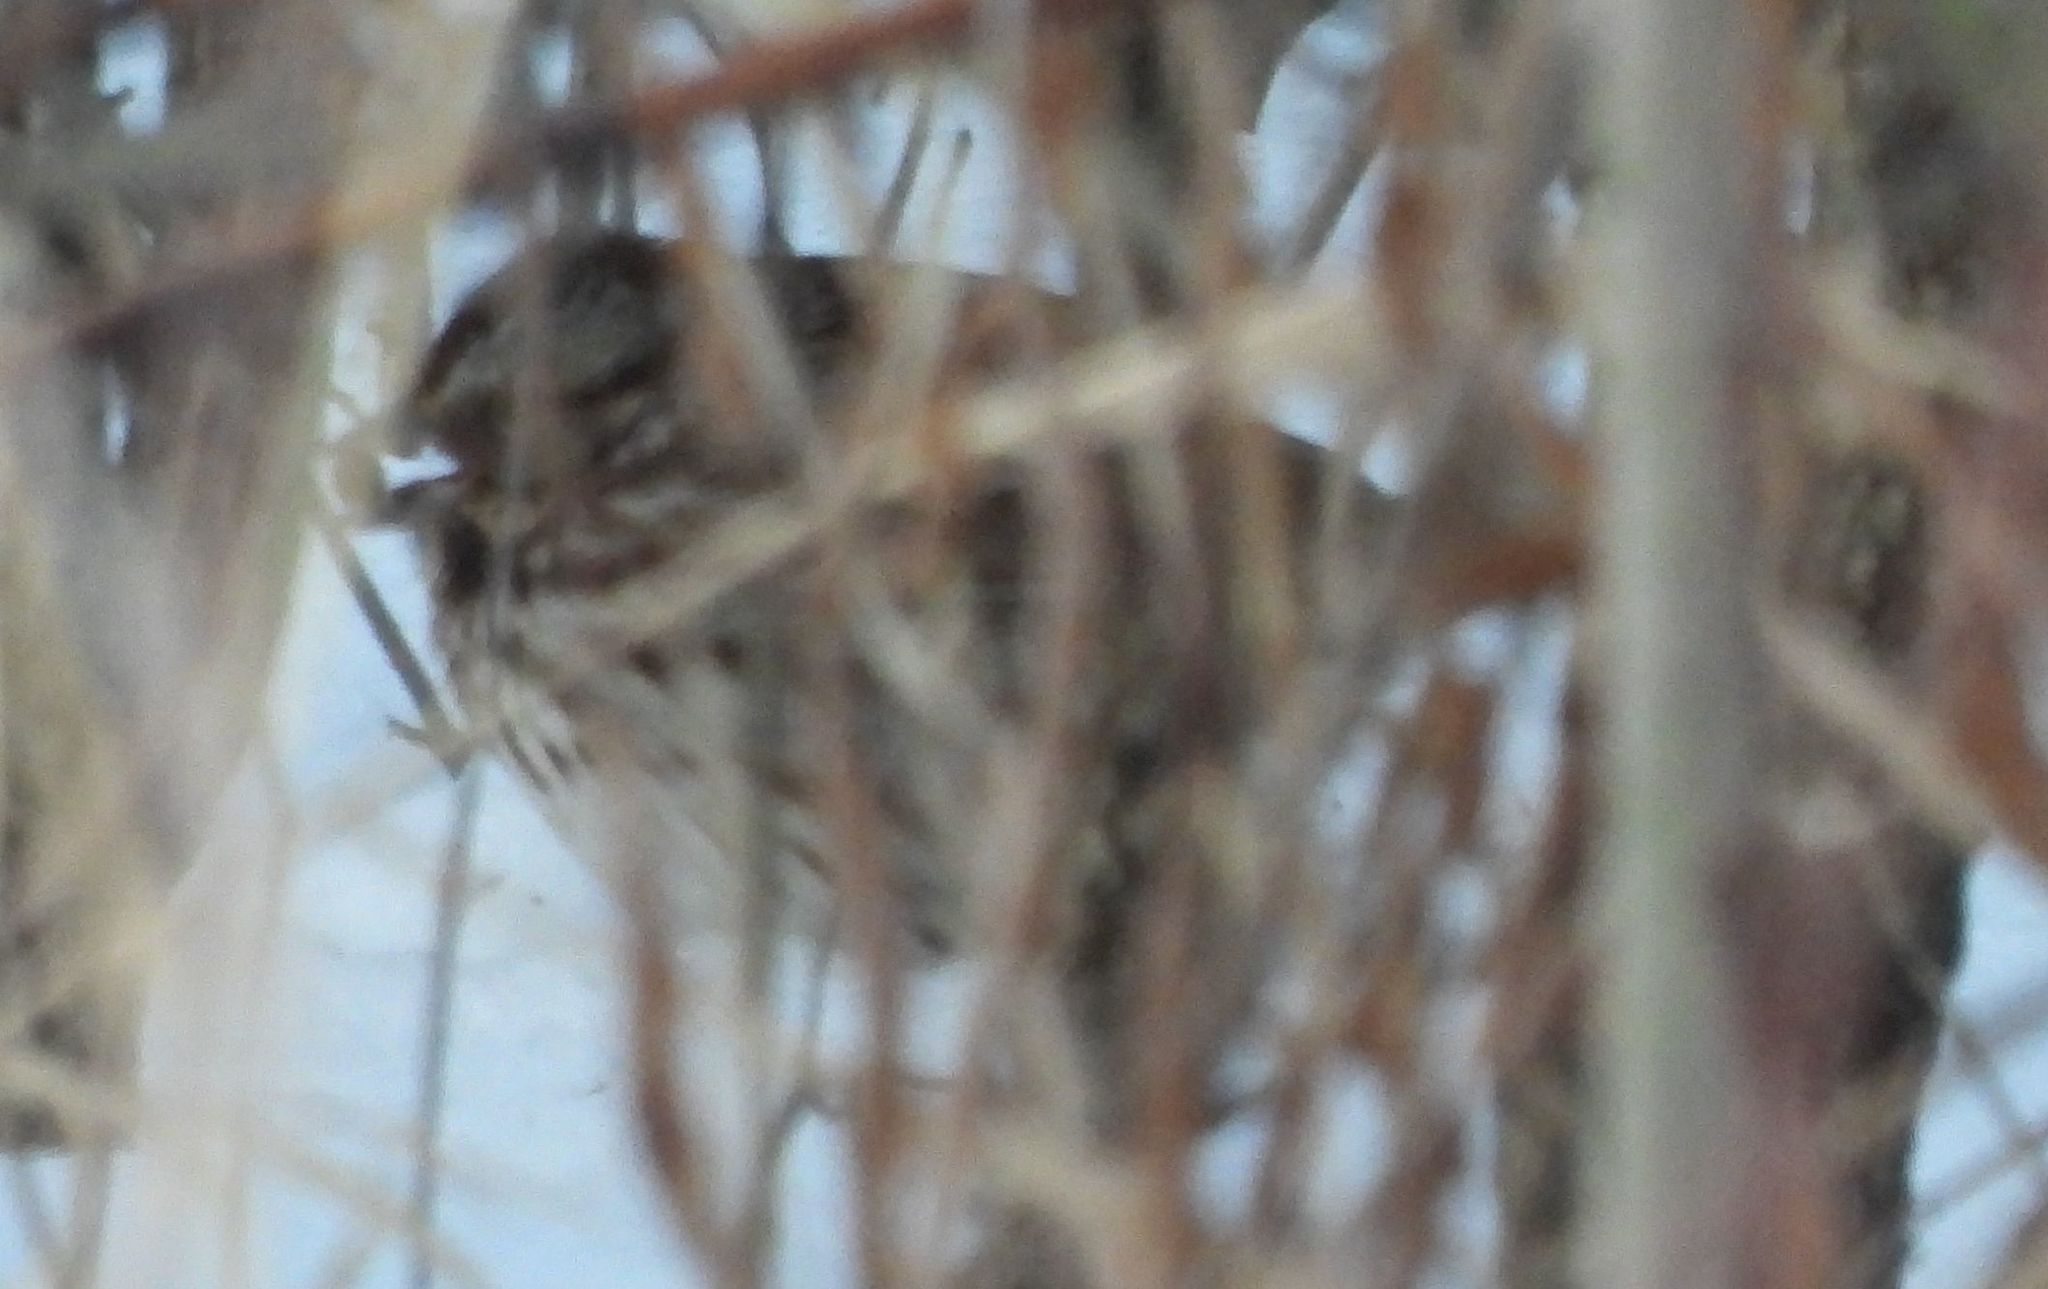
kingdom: Animalia
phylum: Chordata
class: Aves
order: Passeriformes
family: Passerellidae
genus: Melospiza
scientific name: Melospiza melodia
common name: Song sparrow
